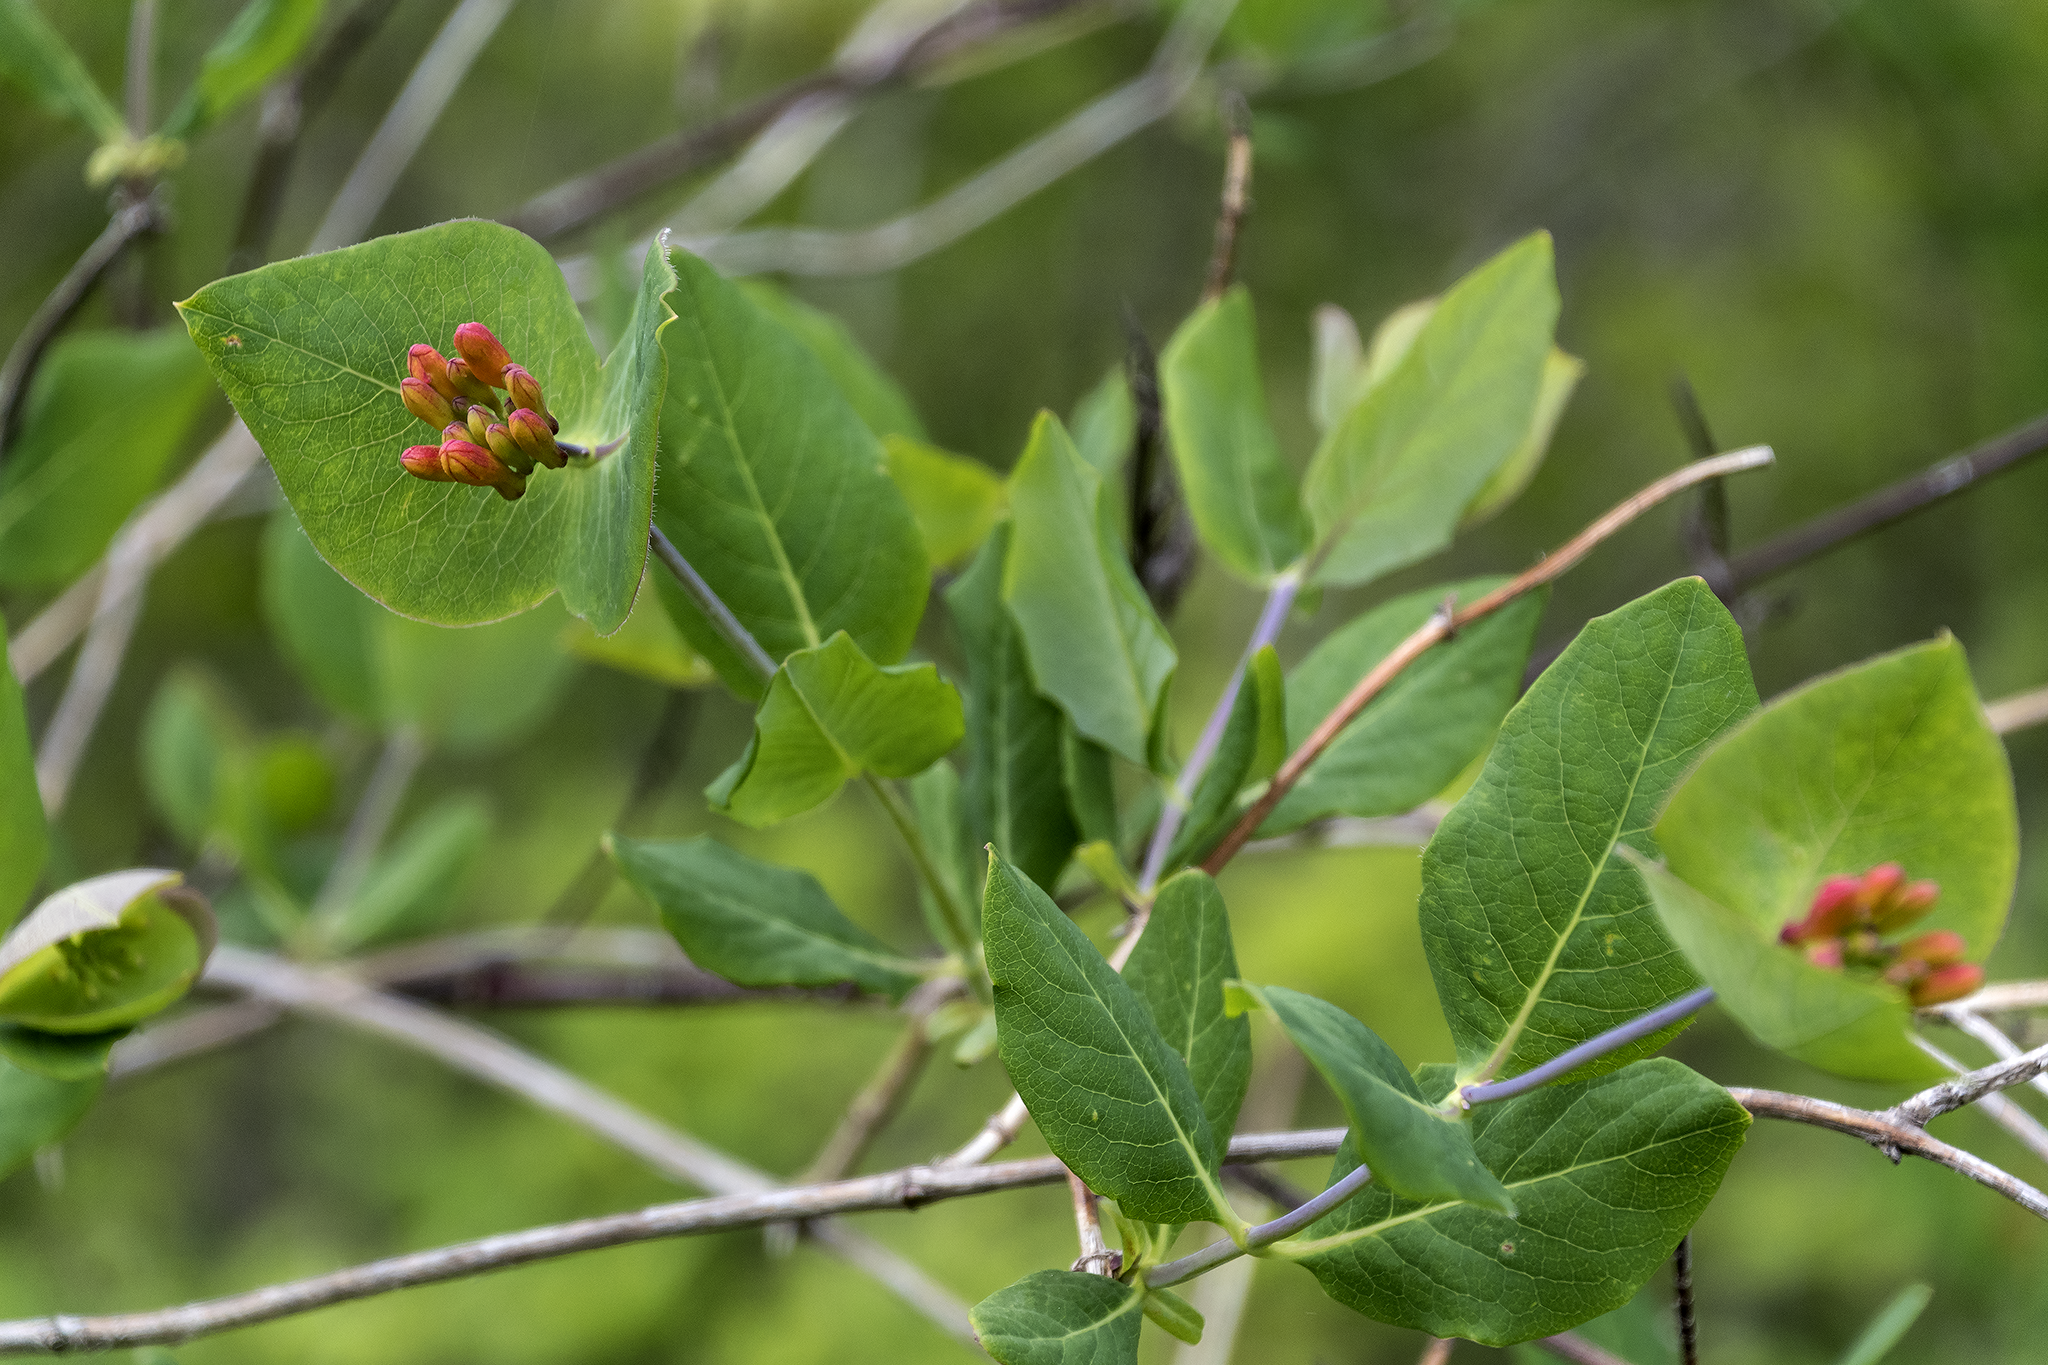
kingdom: Plantae
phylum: Tracheophyta
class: Magnoliopsida
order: Dipsacales
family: Caprifoliaceae
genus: Lonicera
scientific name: Lonicera ciliosa
